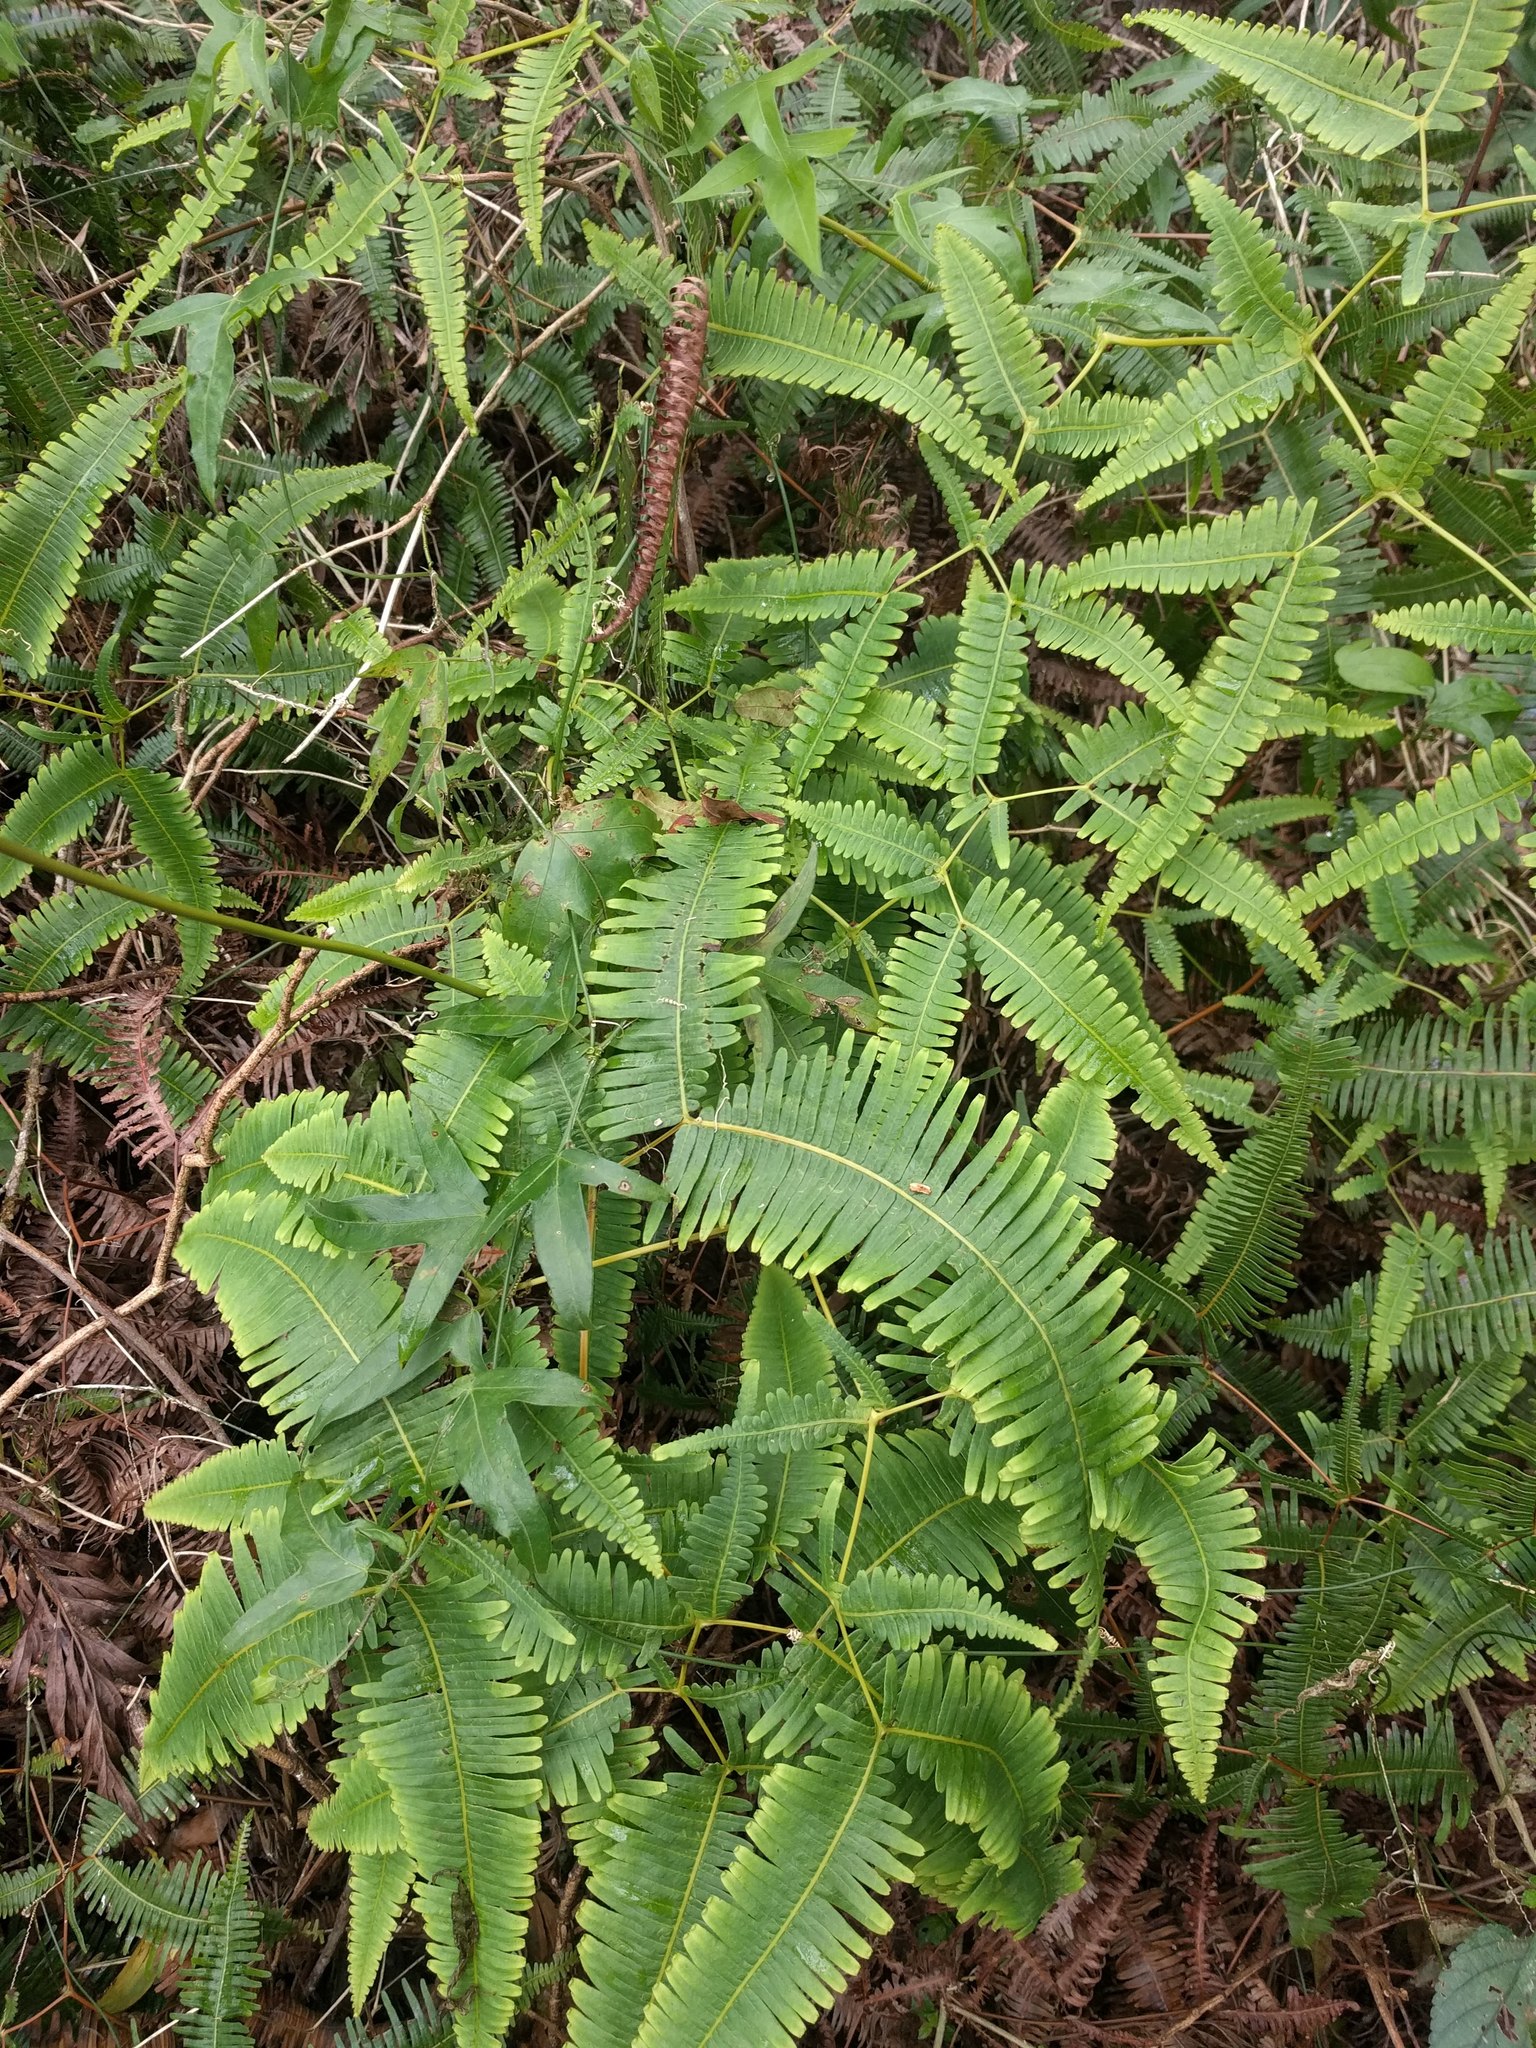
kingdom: Plantae
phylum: Tracheophyta
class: Polypodiopsida
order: Gleicheniales
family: Gleicheniaceae
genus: Dicranopteris
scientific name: Dicranopteris linearis
